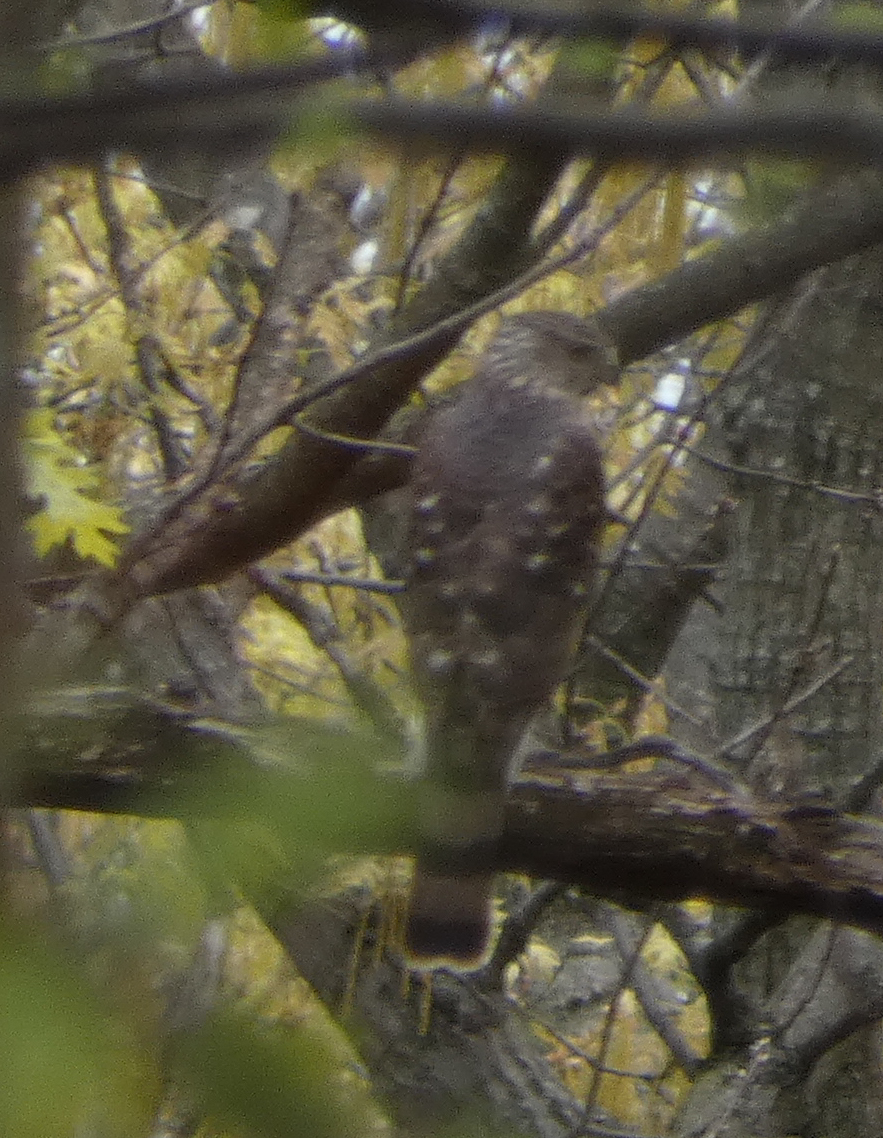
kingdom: Animalia
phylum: Chordata
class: Aves
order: Accipitriformes
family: Accipitridae
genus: Accipiter
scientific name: Accipiter cooperii
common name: Cooper's hawk
